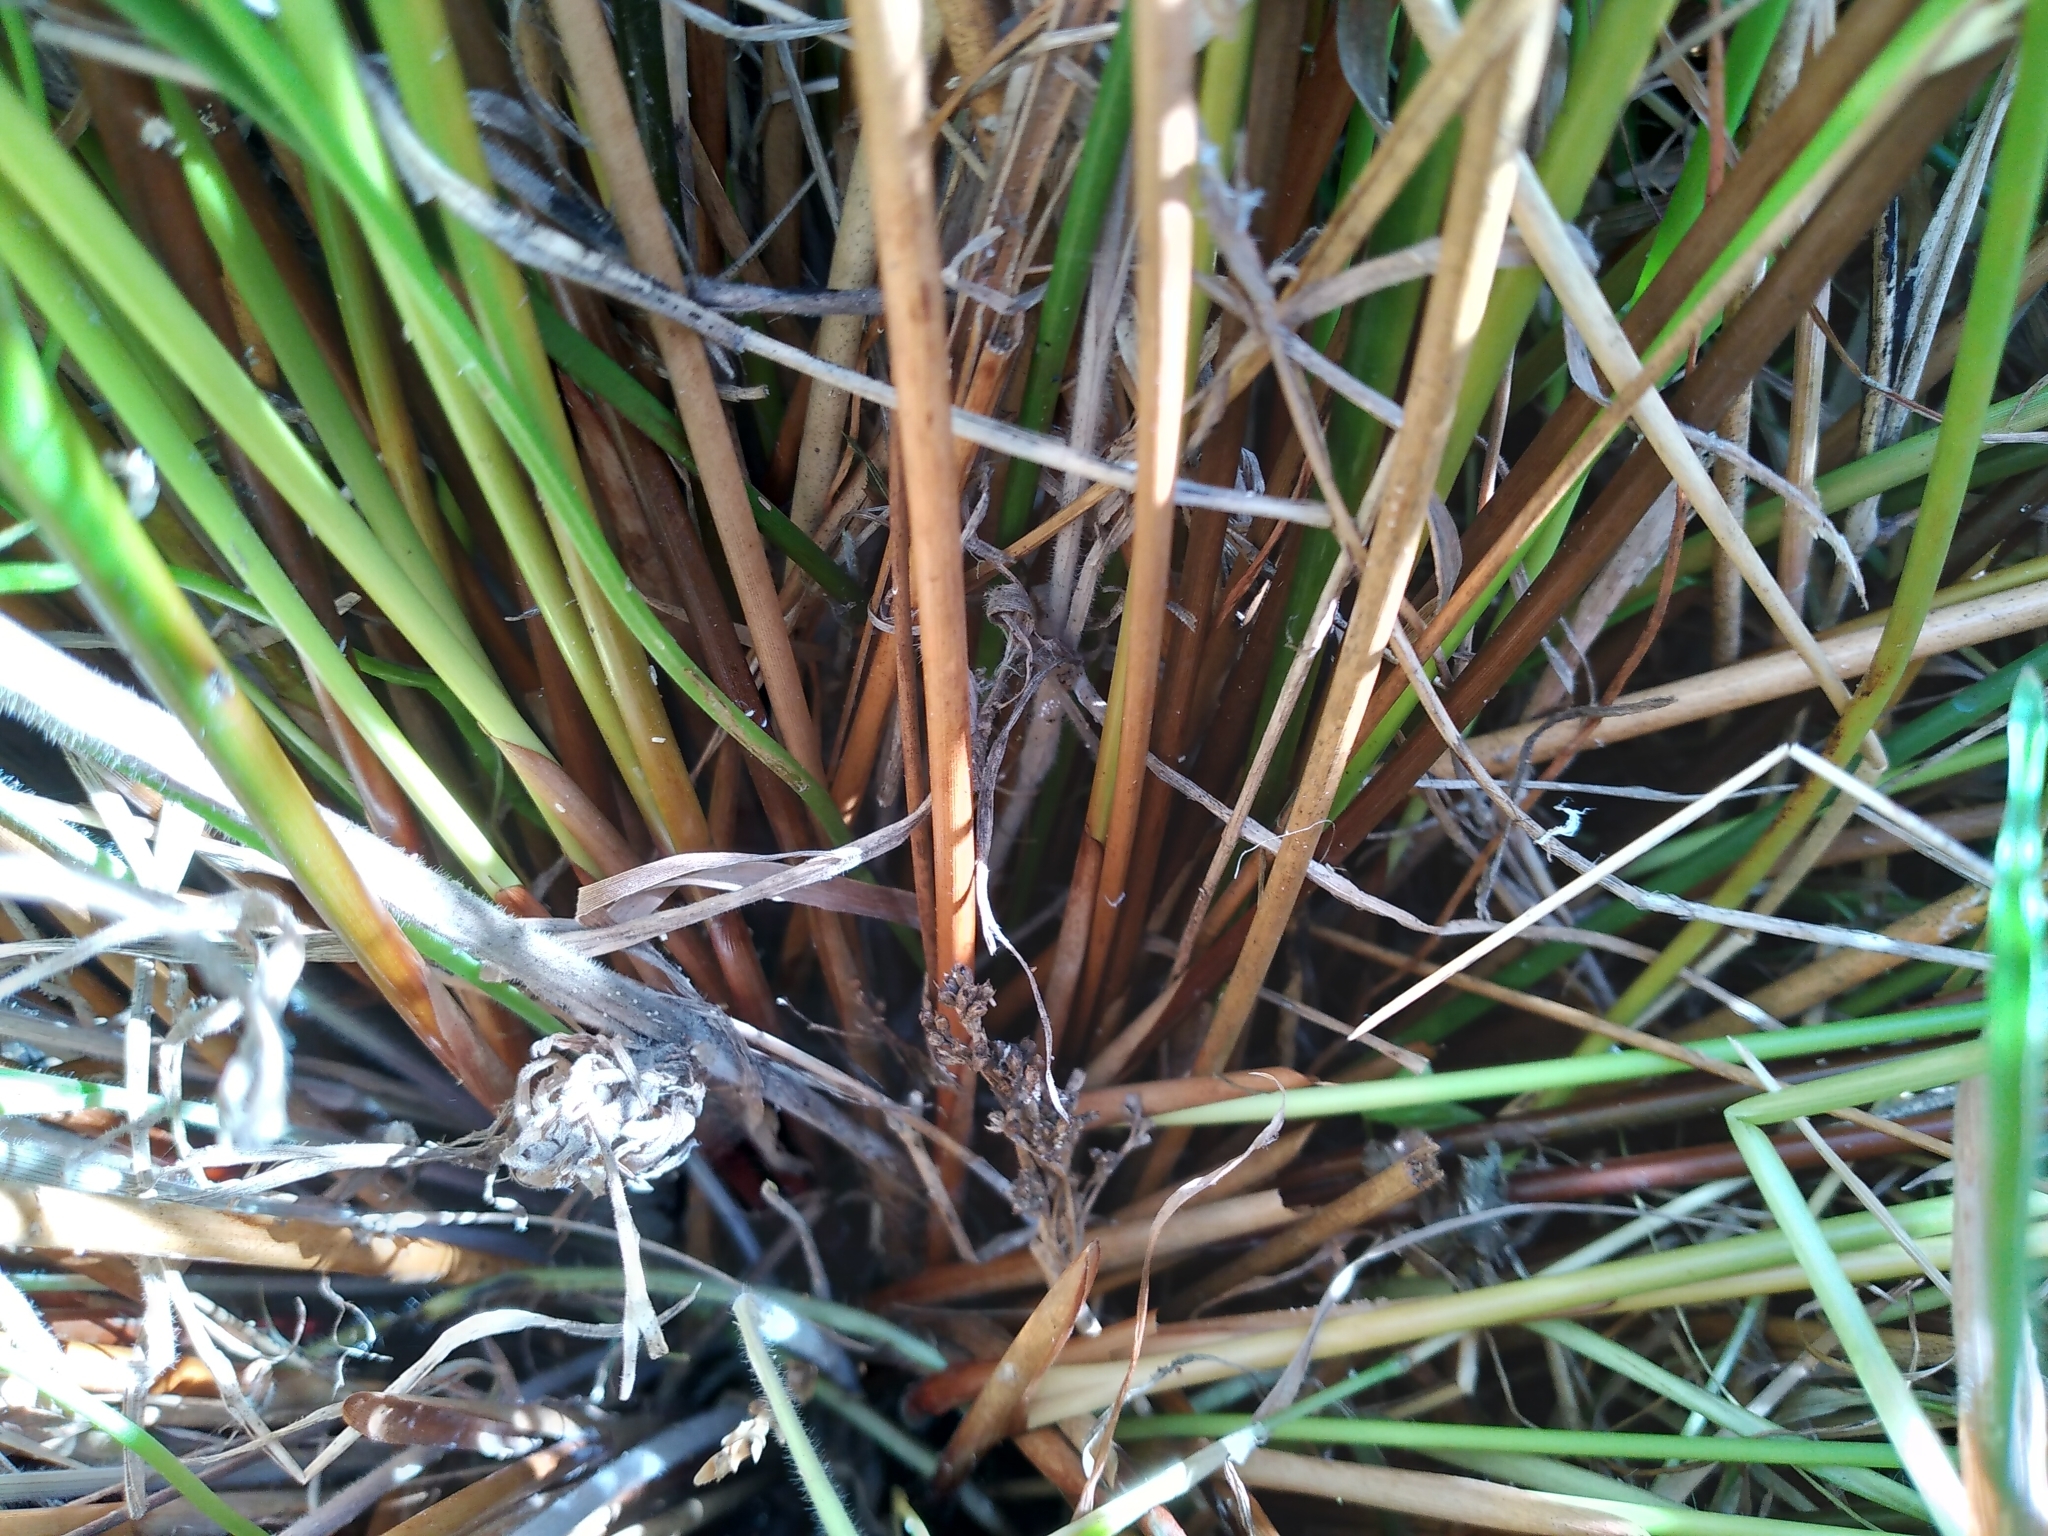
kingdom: Plantae
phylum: Tracheophyta
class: Liliopsida
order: Poales
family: Juncaceae
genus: Juncus
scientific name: Juncus edgariae
